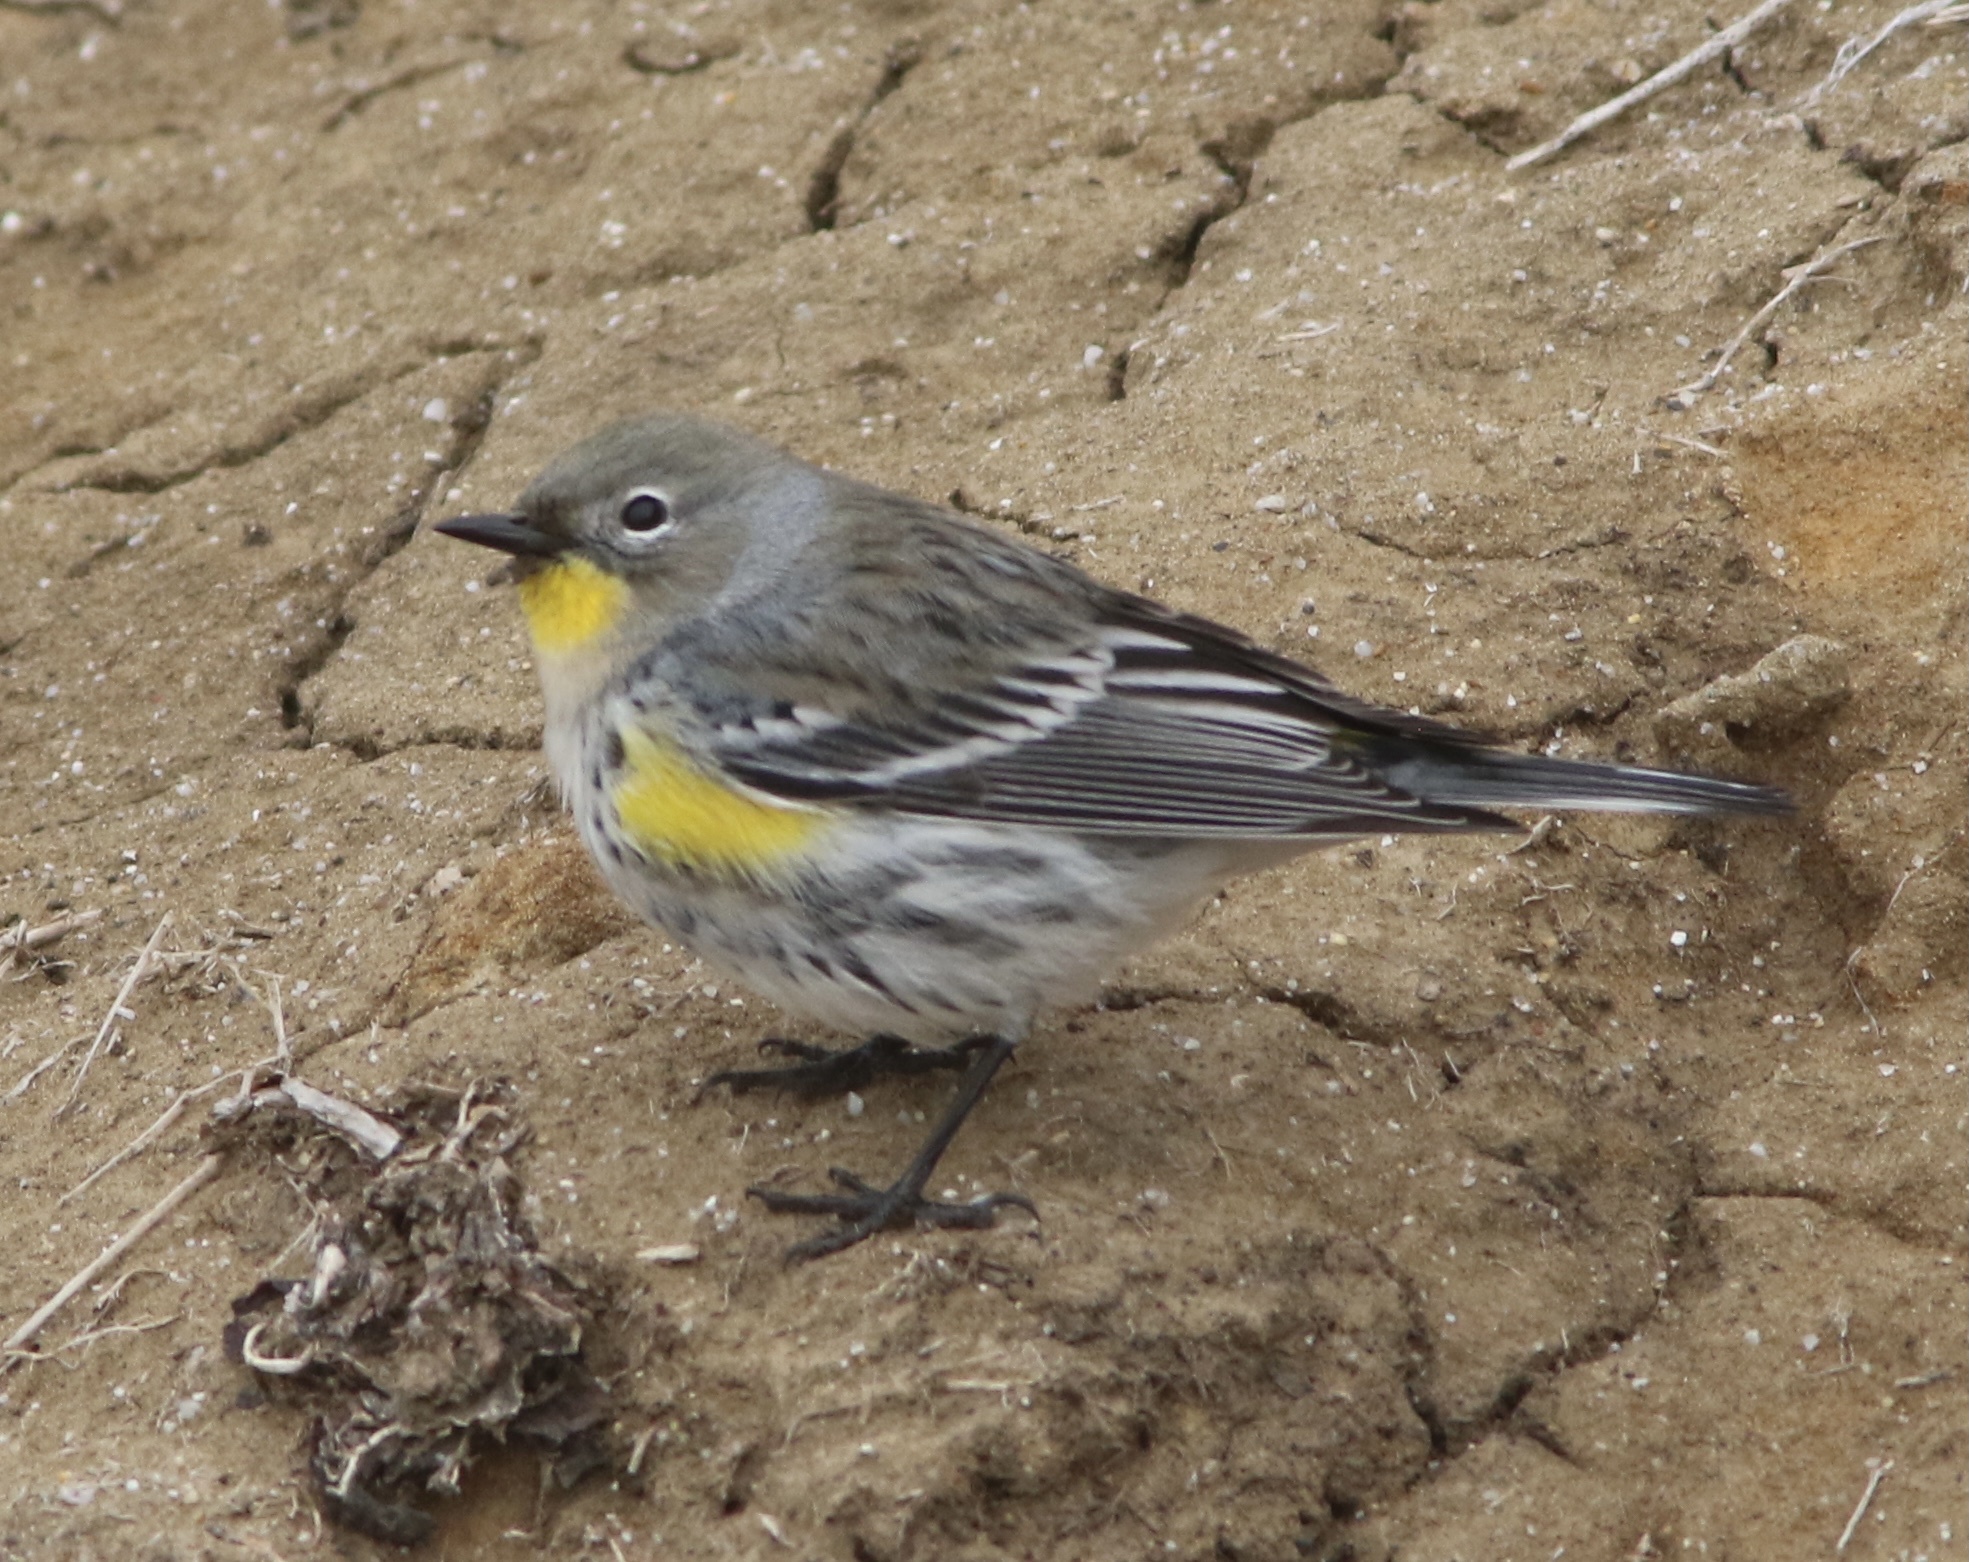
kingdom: Animalia
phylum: Chordata
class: Aves
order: Passeriformes
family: Parulidae
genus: Setophaga
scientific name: Setophaga coronata
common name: Myrtle warbler
